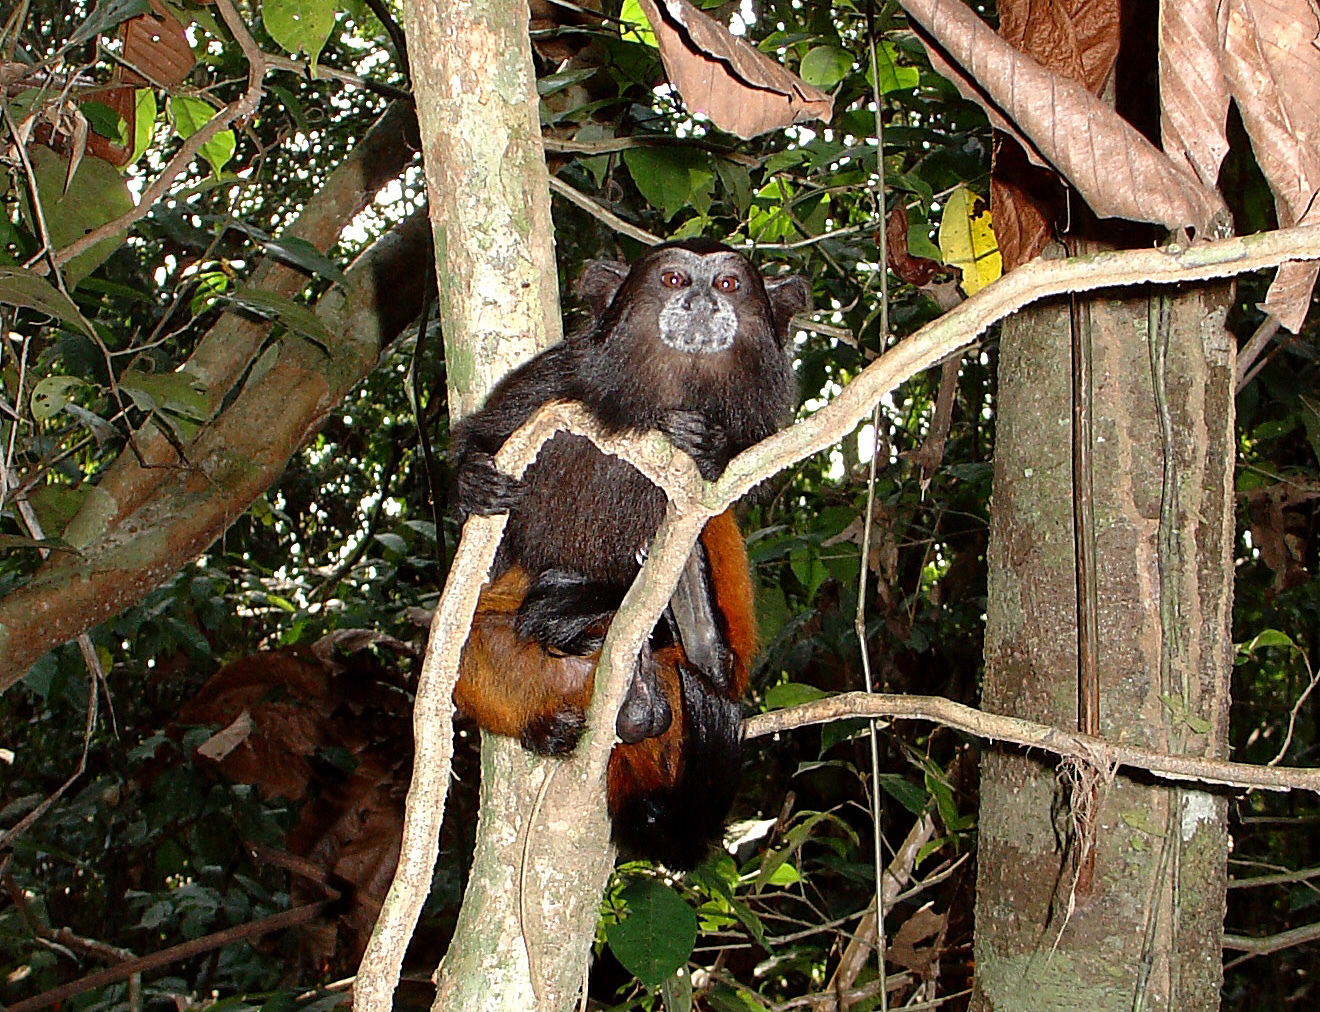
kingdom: Animalia
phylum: Chordata
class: Mammalia
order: Primates
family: Callitrichidae
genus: Leontocebus
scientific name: Leontocebus weddelli
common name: Weddell's saddle-back tamarin
